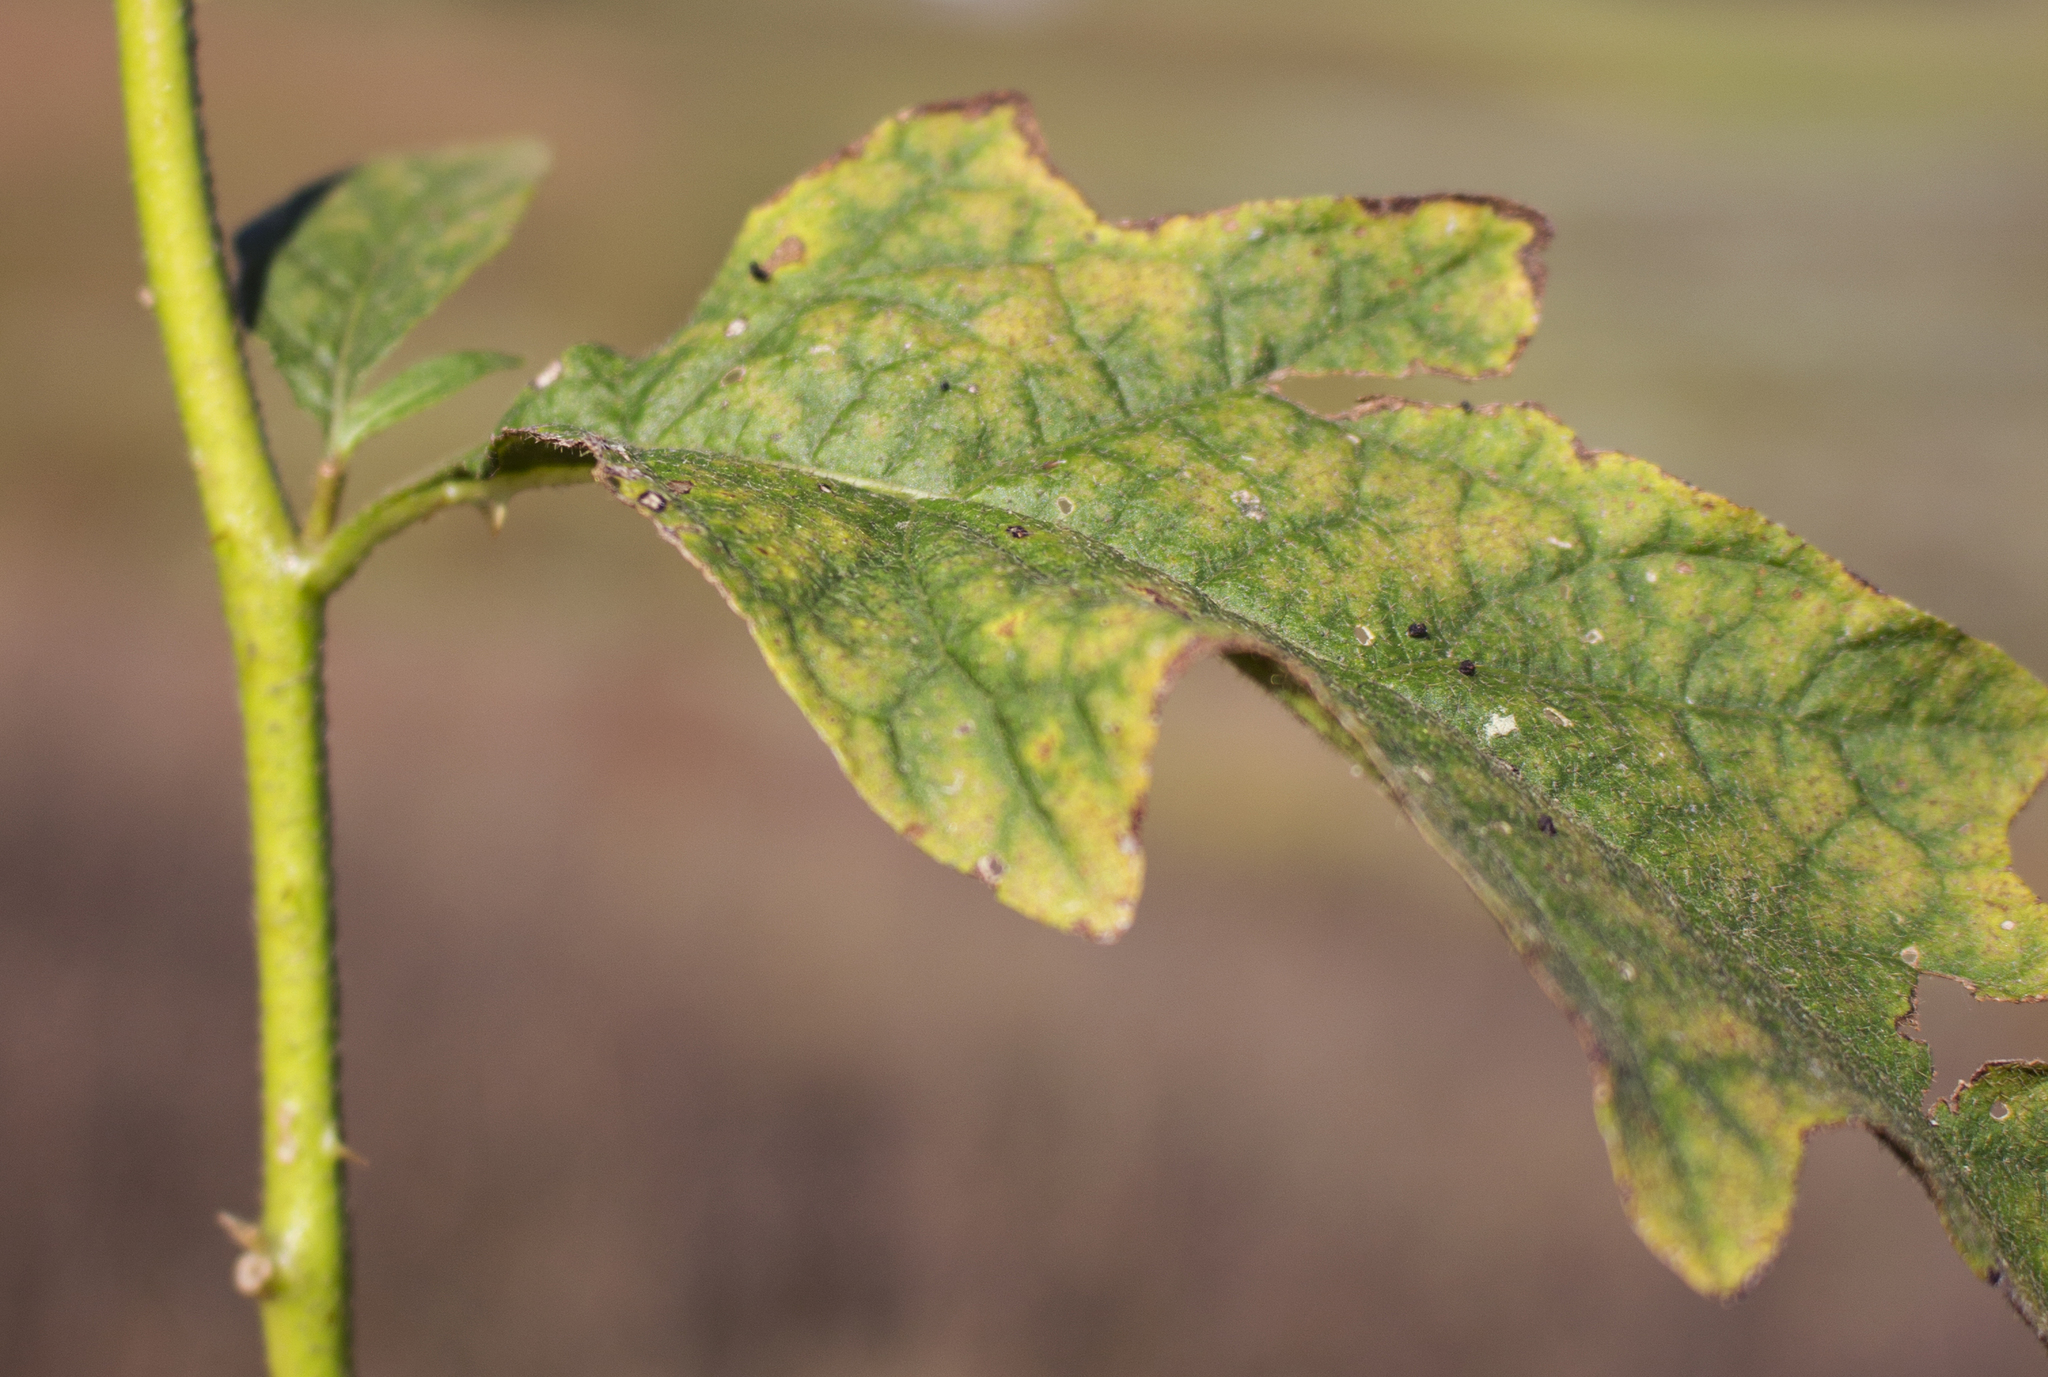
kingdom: Plantae
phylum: Tracheophyta
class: Magnoliopsida
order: Solanales
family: Solanaceae
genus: Solanum
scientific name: Solanum carolinense
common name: Horse-nettle
